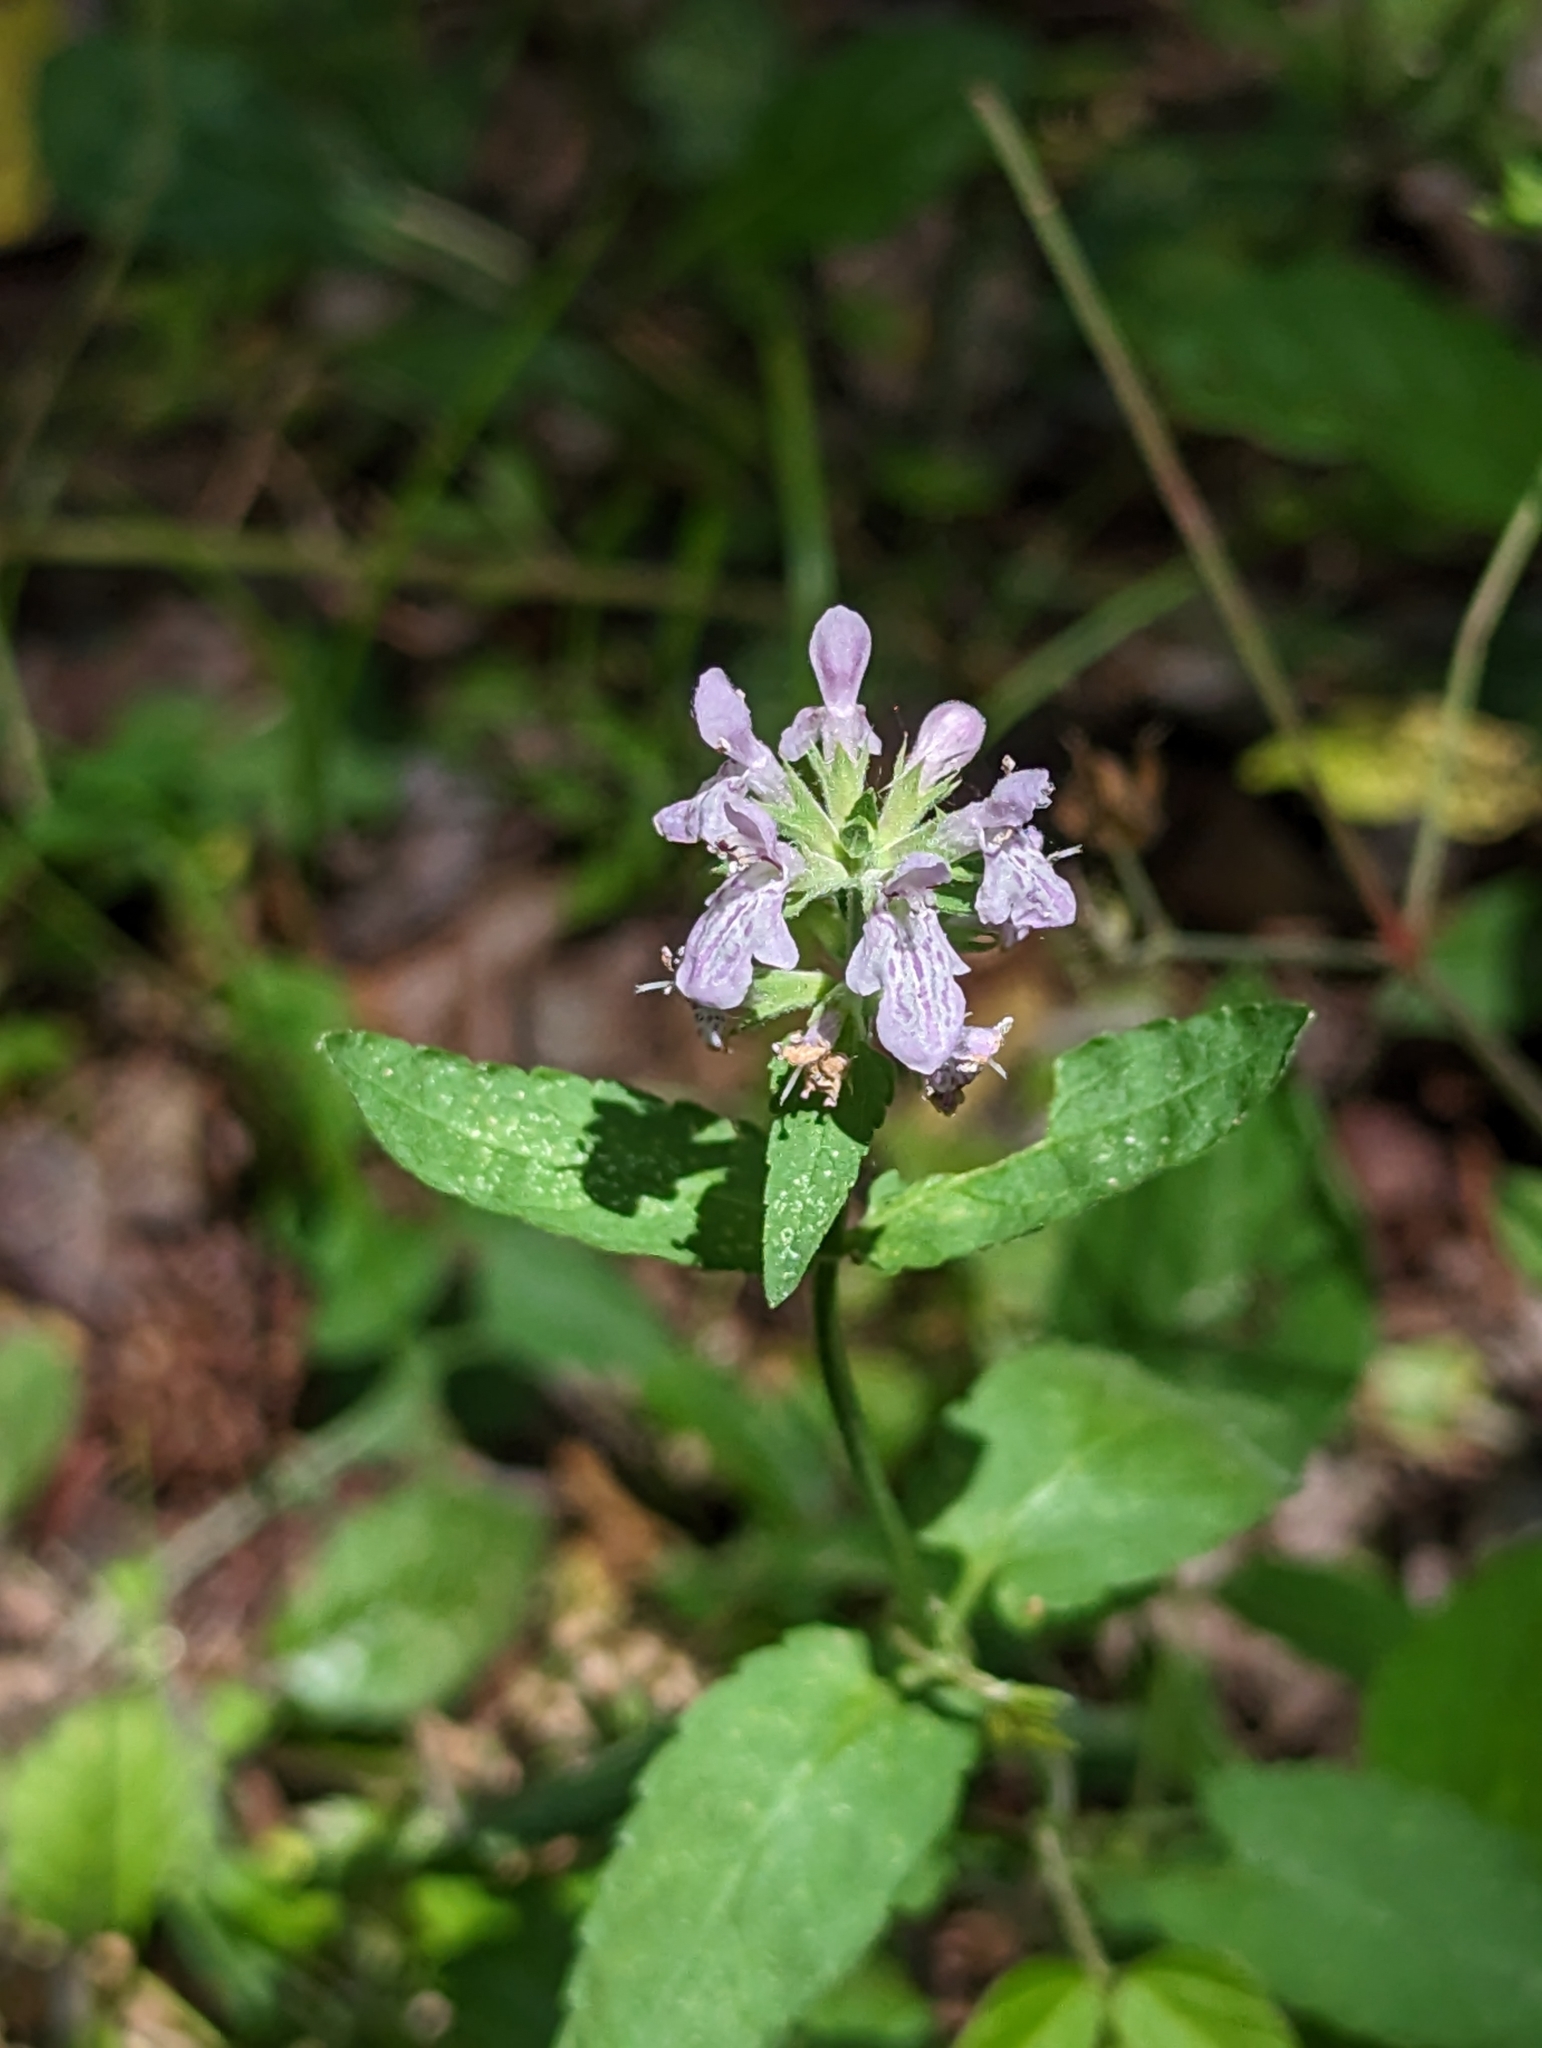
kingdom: Plantae
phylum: Tracheophyta
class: Magnoliopsida
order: Lamiales
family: Lamiaceae
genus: Stachys
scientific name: Stachys floridana
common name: Florida betony
